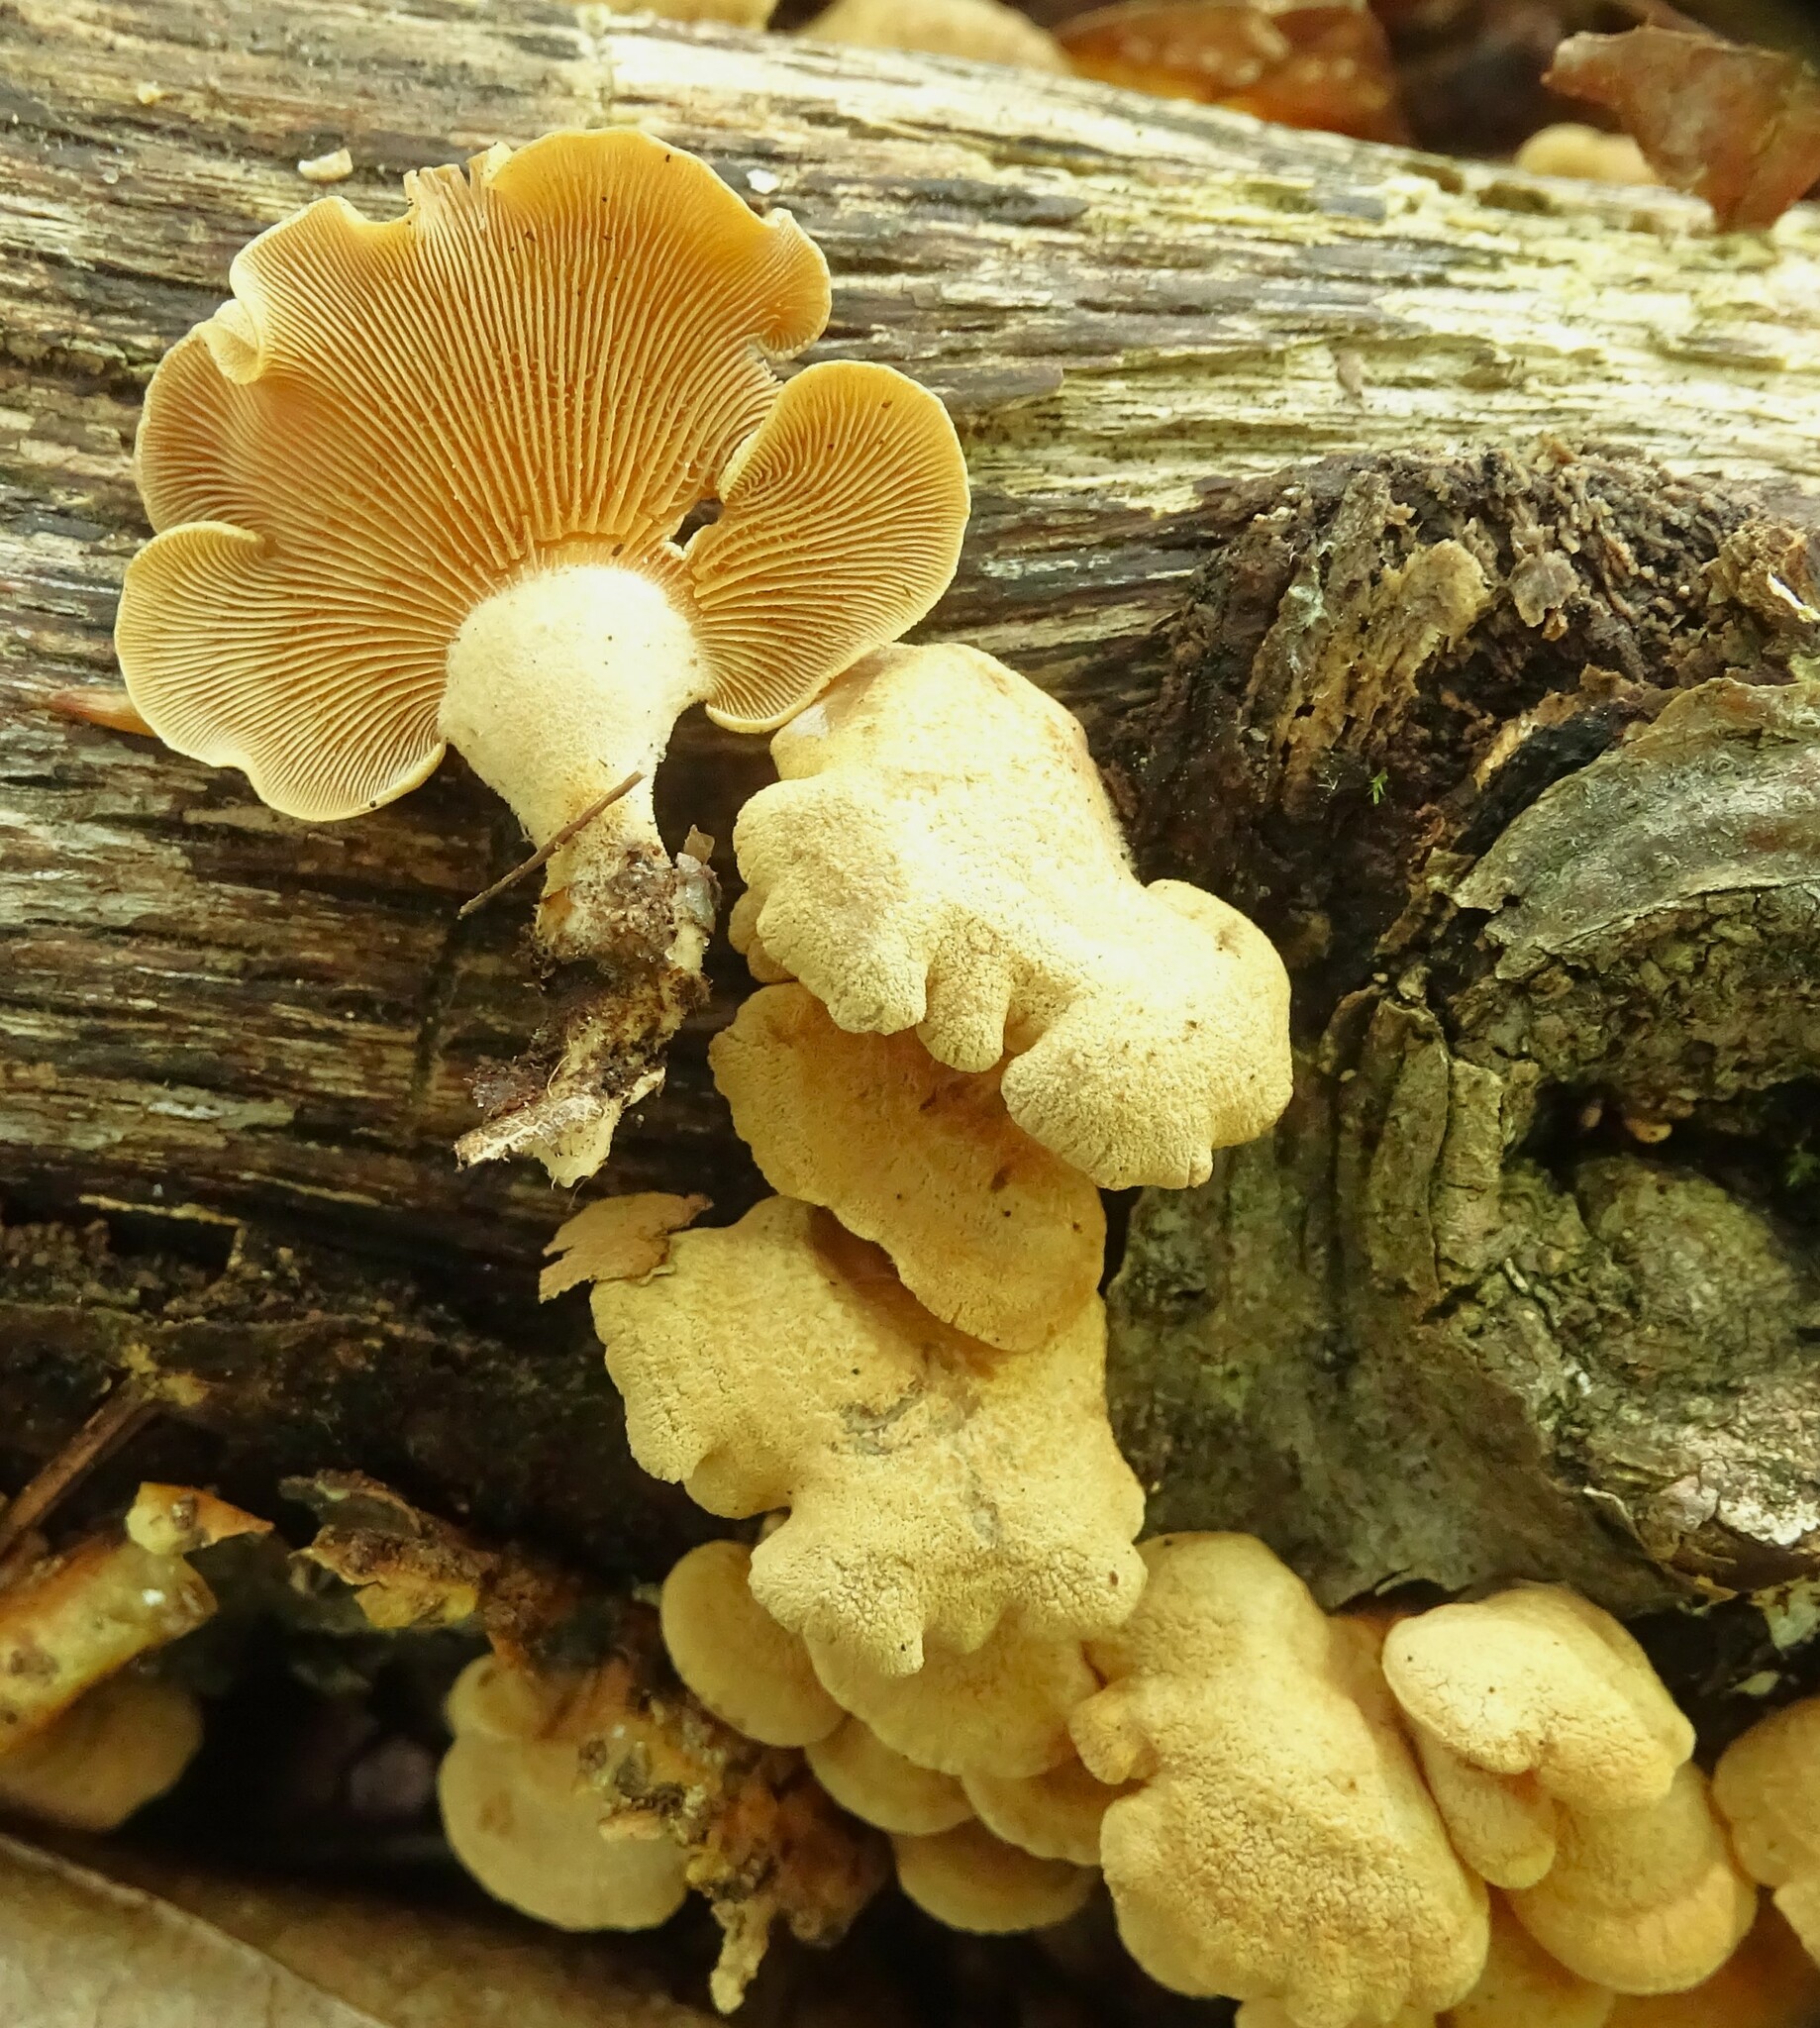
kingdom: Fungi
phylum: Basidiomycota
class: Agaricomycetes
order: Agaricales
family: Mycenaceae
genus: Panellus
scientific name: Panellus stipticus
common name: Bitter oysterling
